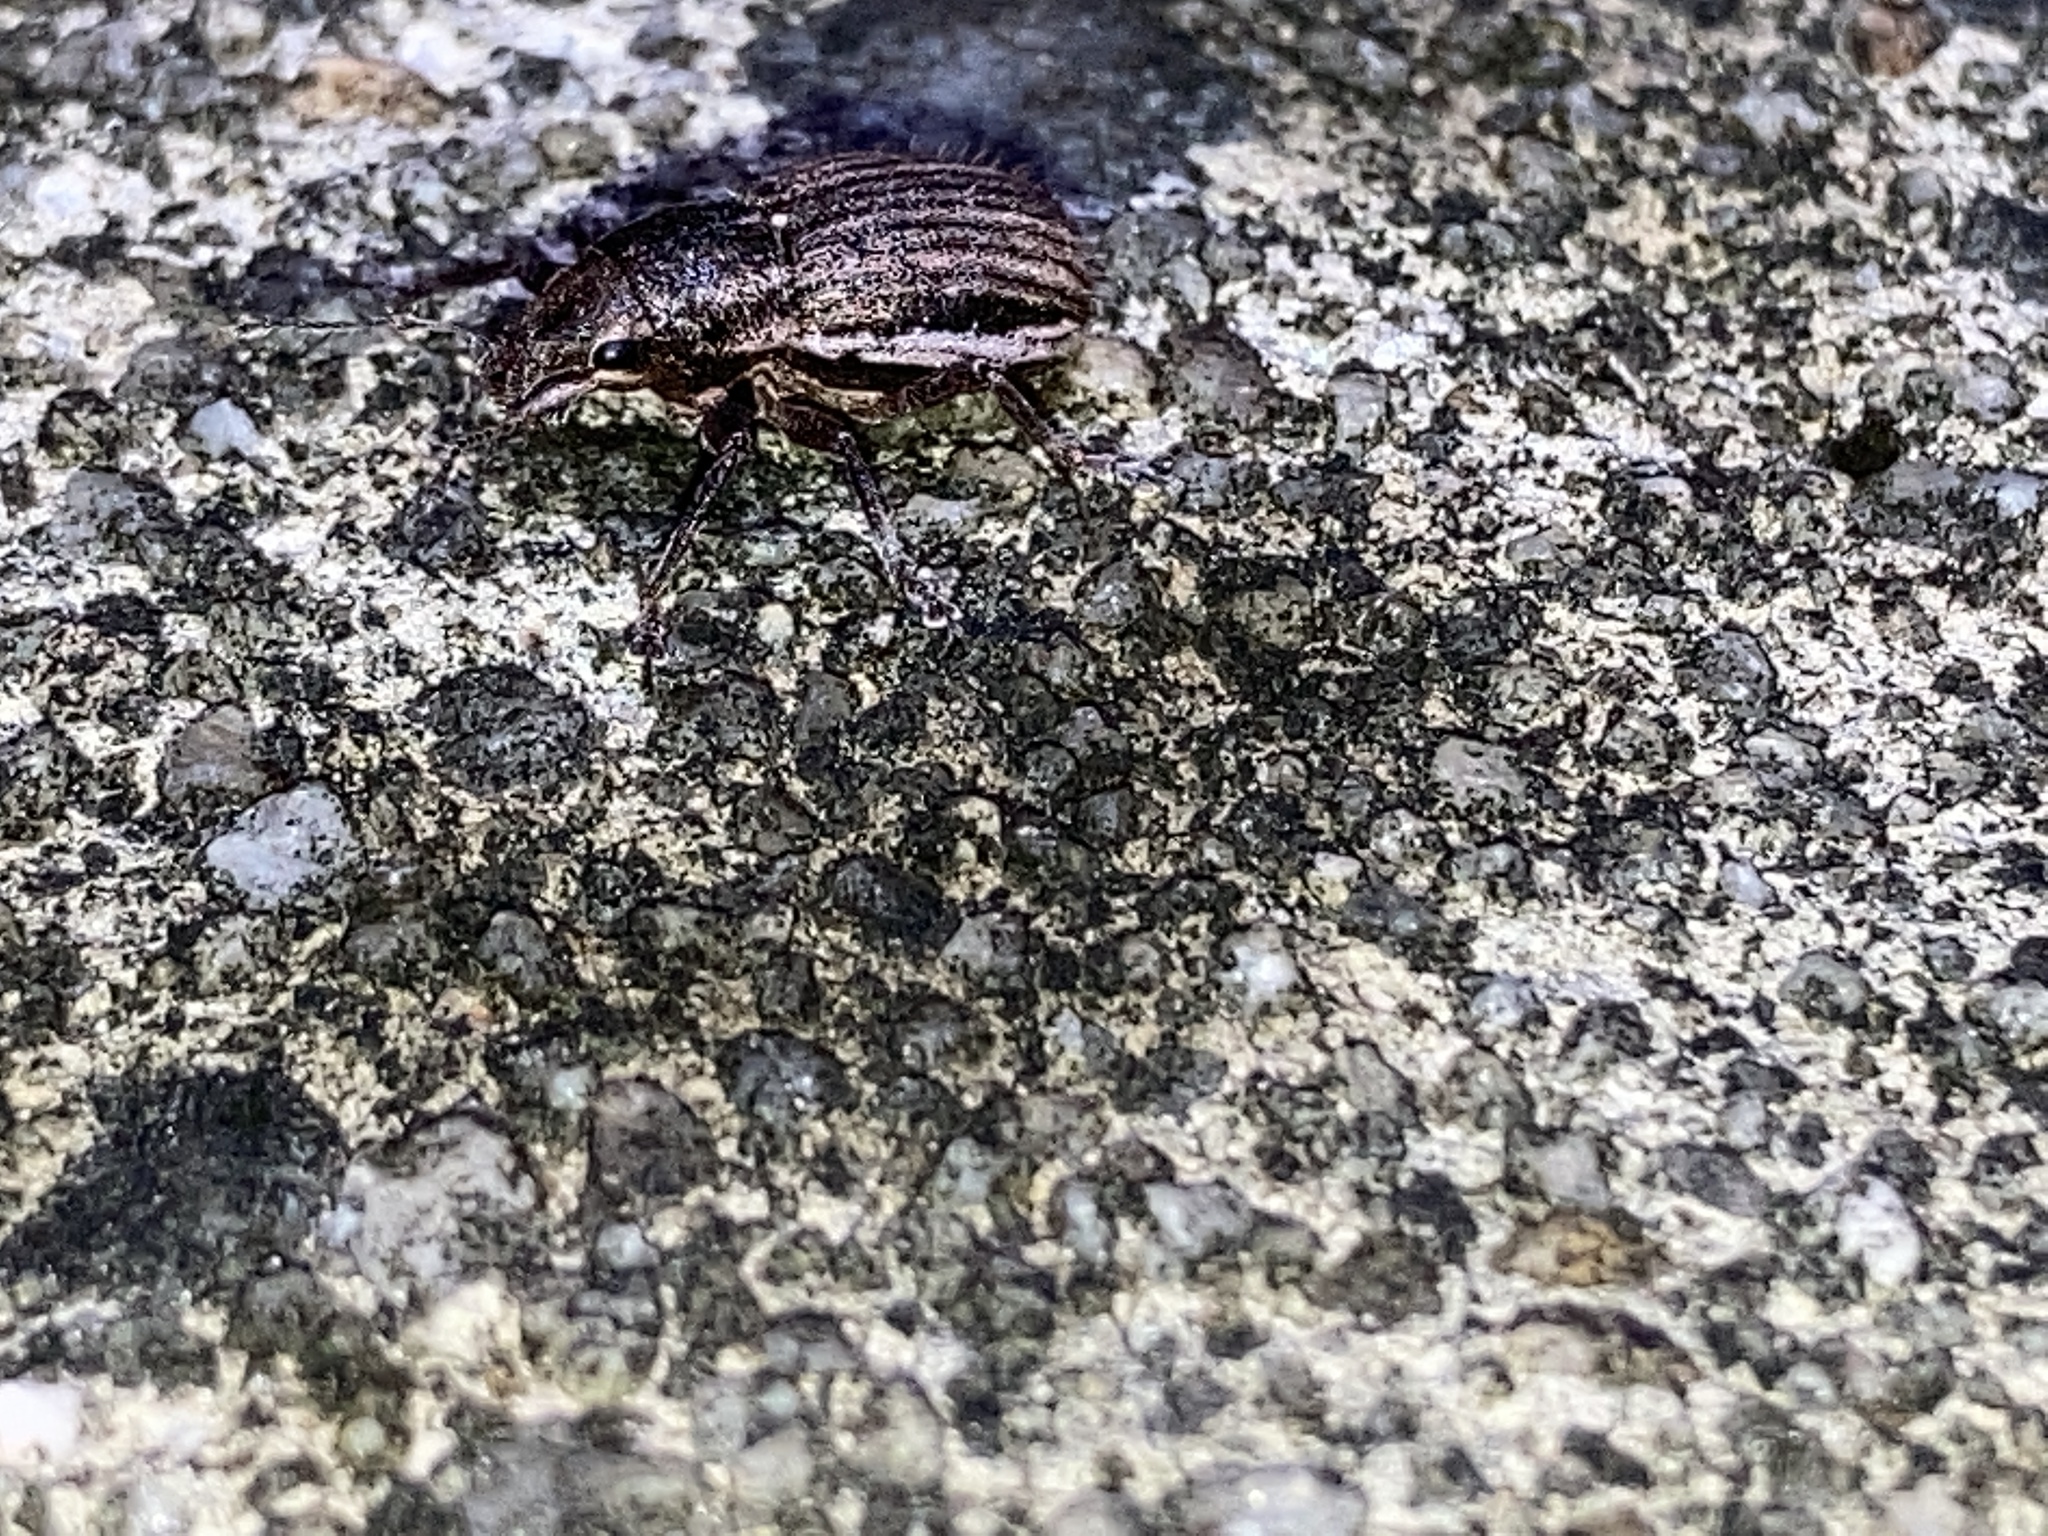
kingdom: Animalia
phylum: Arthropoda
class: Insecta
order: Coleoptera
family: Curculionidae
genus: Naupactus
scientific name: Naupactus leucoloma
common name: Whitefringed beetle
